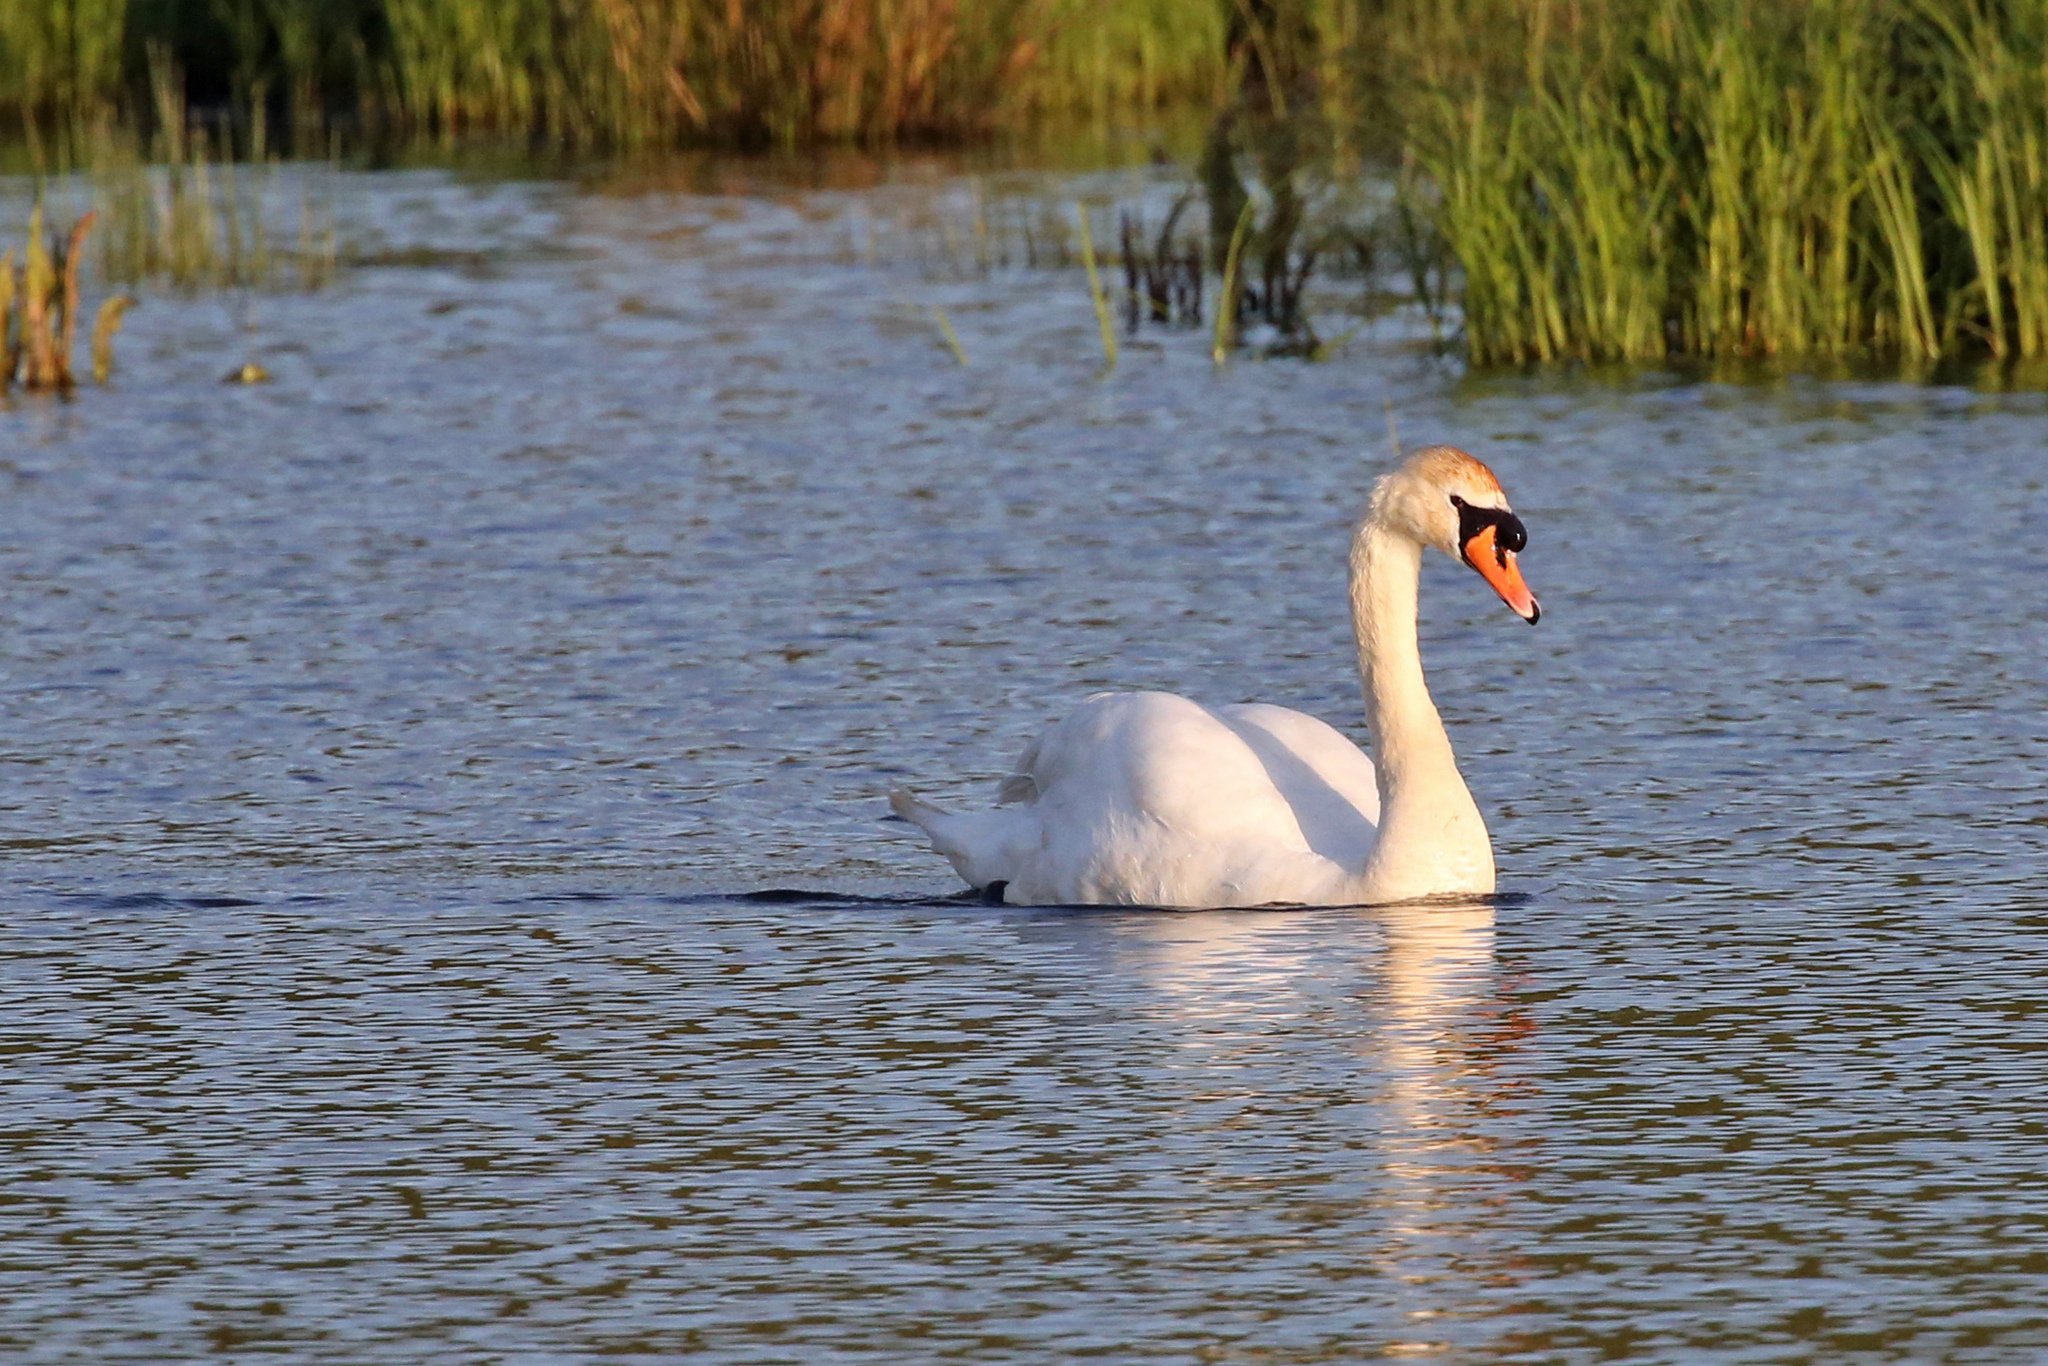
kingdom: Animalia
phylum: Chordata
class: Aves
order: Anseriformes
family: Anatidae
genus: Cygnus
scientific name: Cygnus olor
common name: Mute swan
